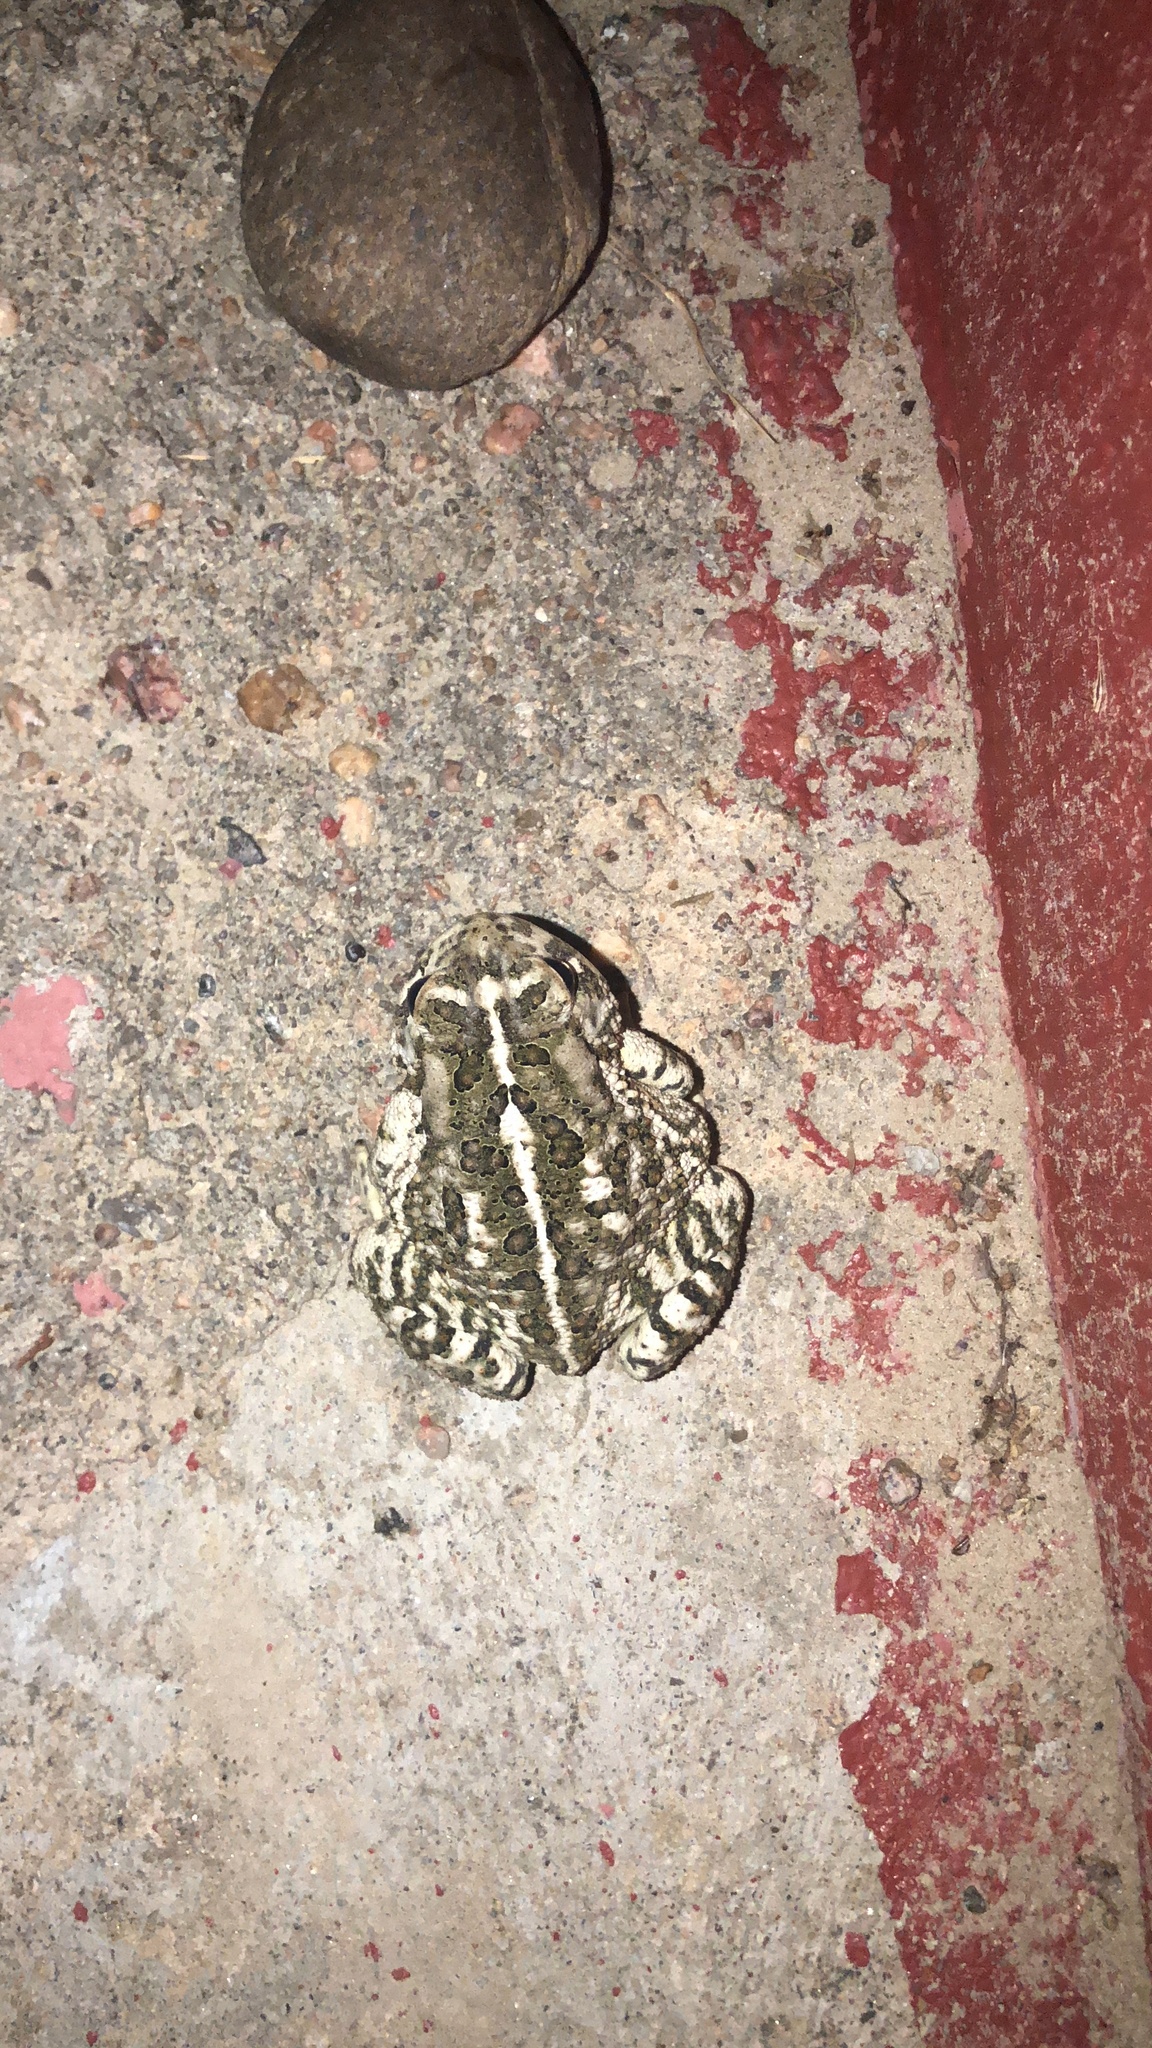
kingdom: Animalia
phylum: Chordata
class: Amphibia
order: Anura
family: Bufonidae
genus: Anaxyrus
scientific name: Anaxyrus woodhousii
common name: Woodhouse's toad
